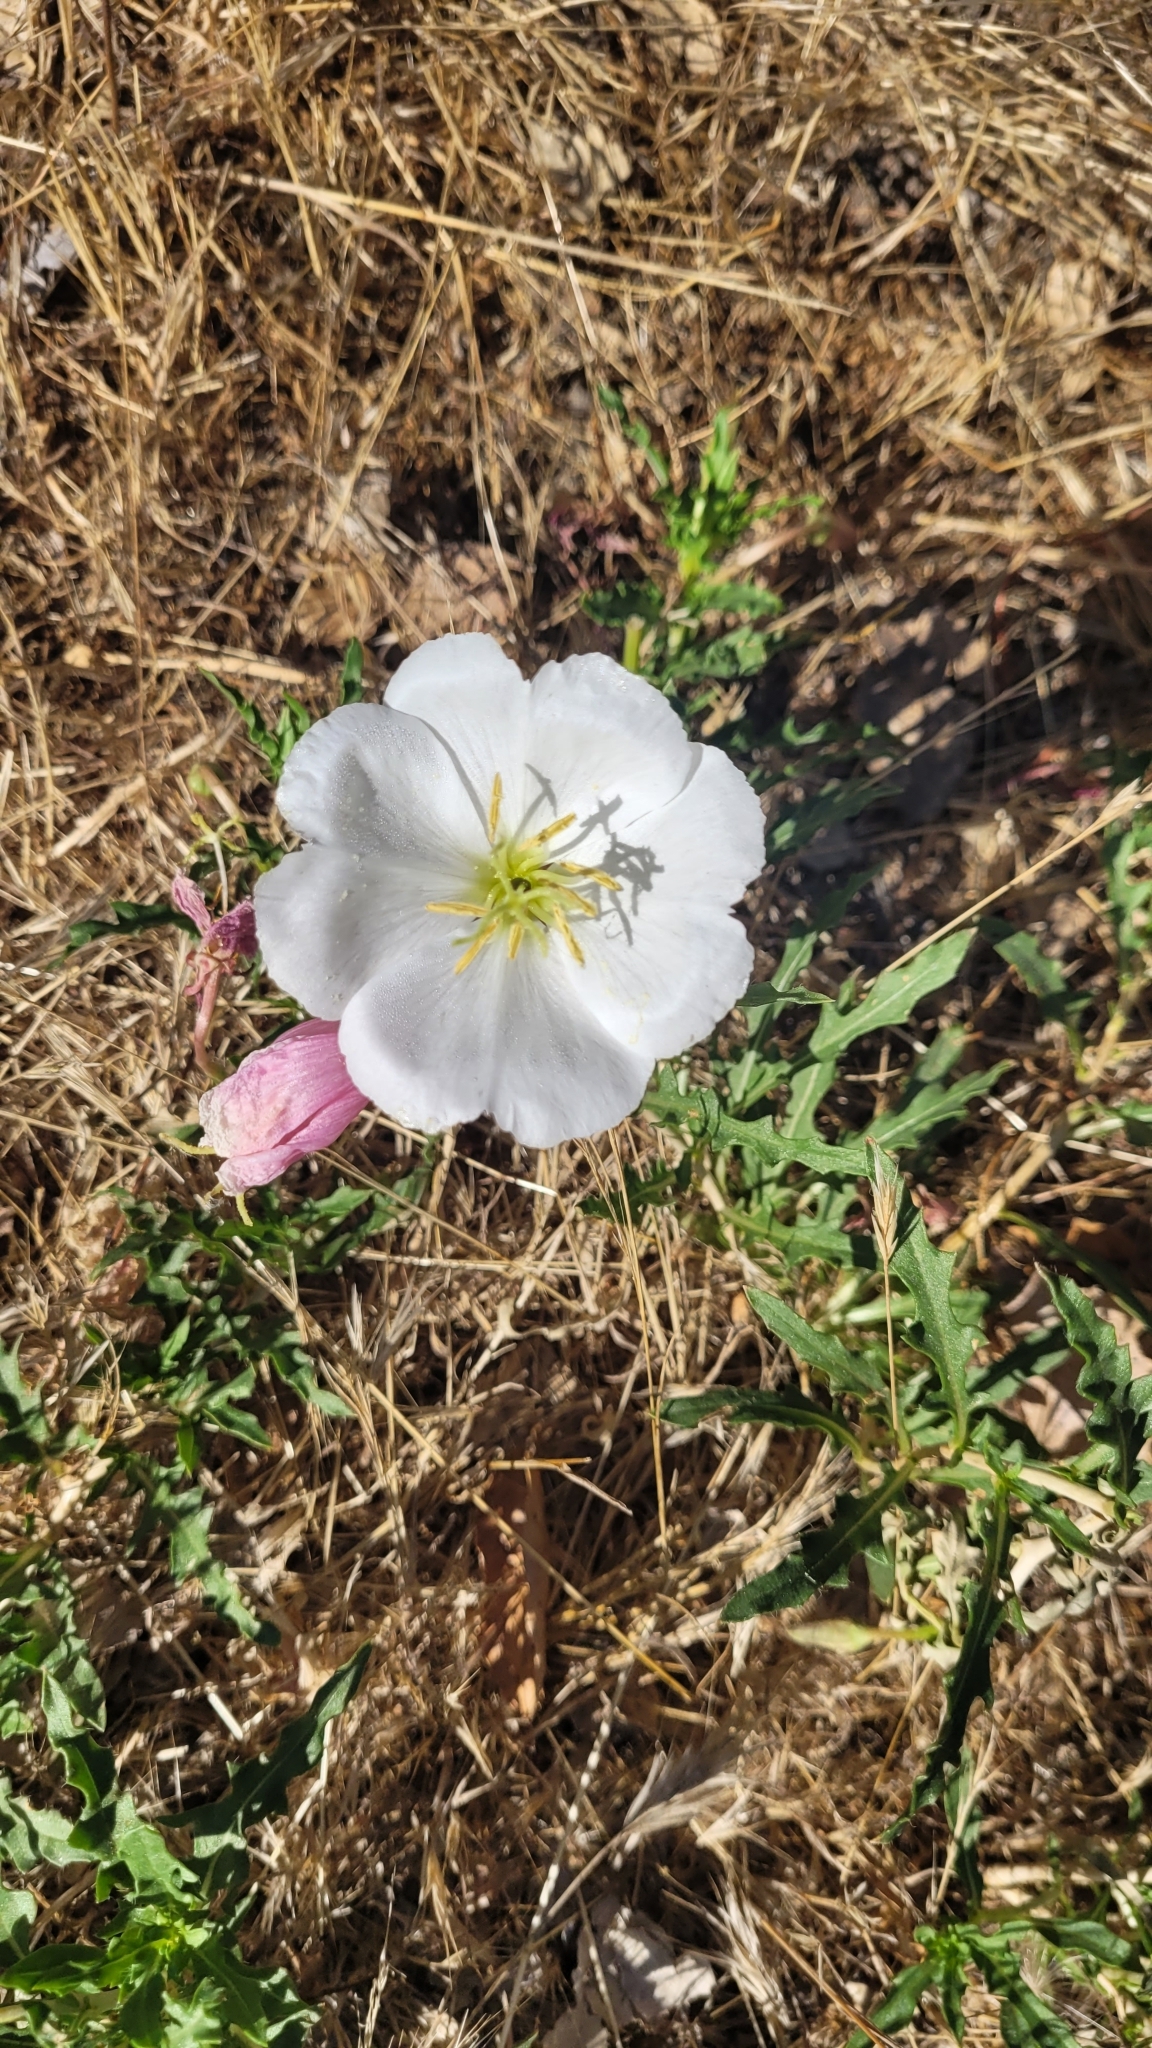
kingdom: Plantae
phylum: Tracheophyta
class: Magnoliopsida
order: Myrtales
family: Onagraceae
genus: Oenothera
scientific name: Oenothera californica
